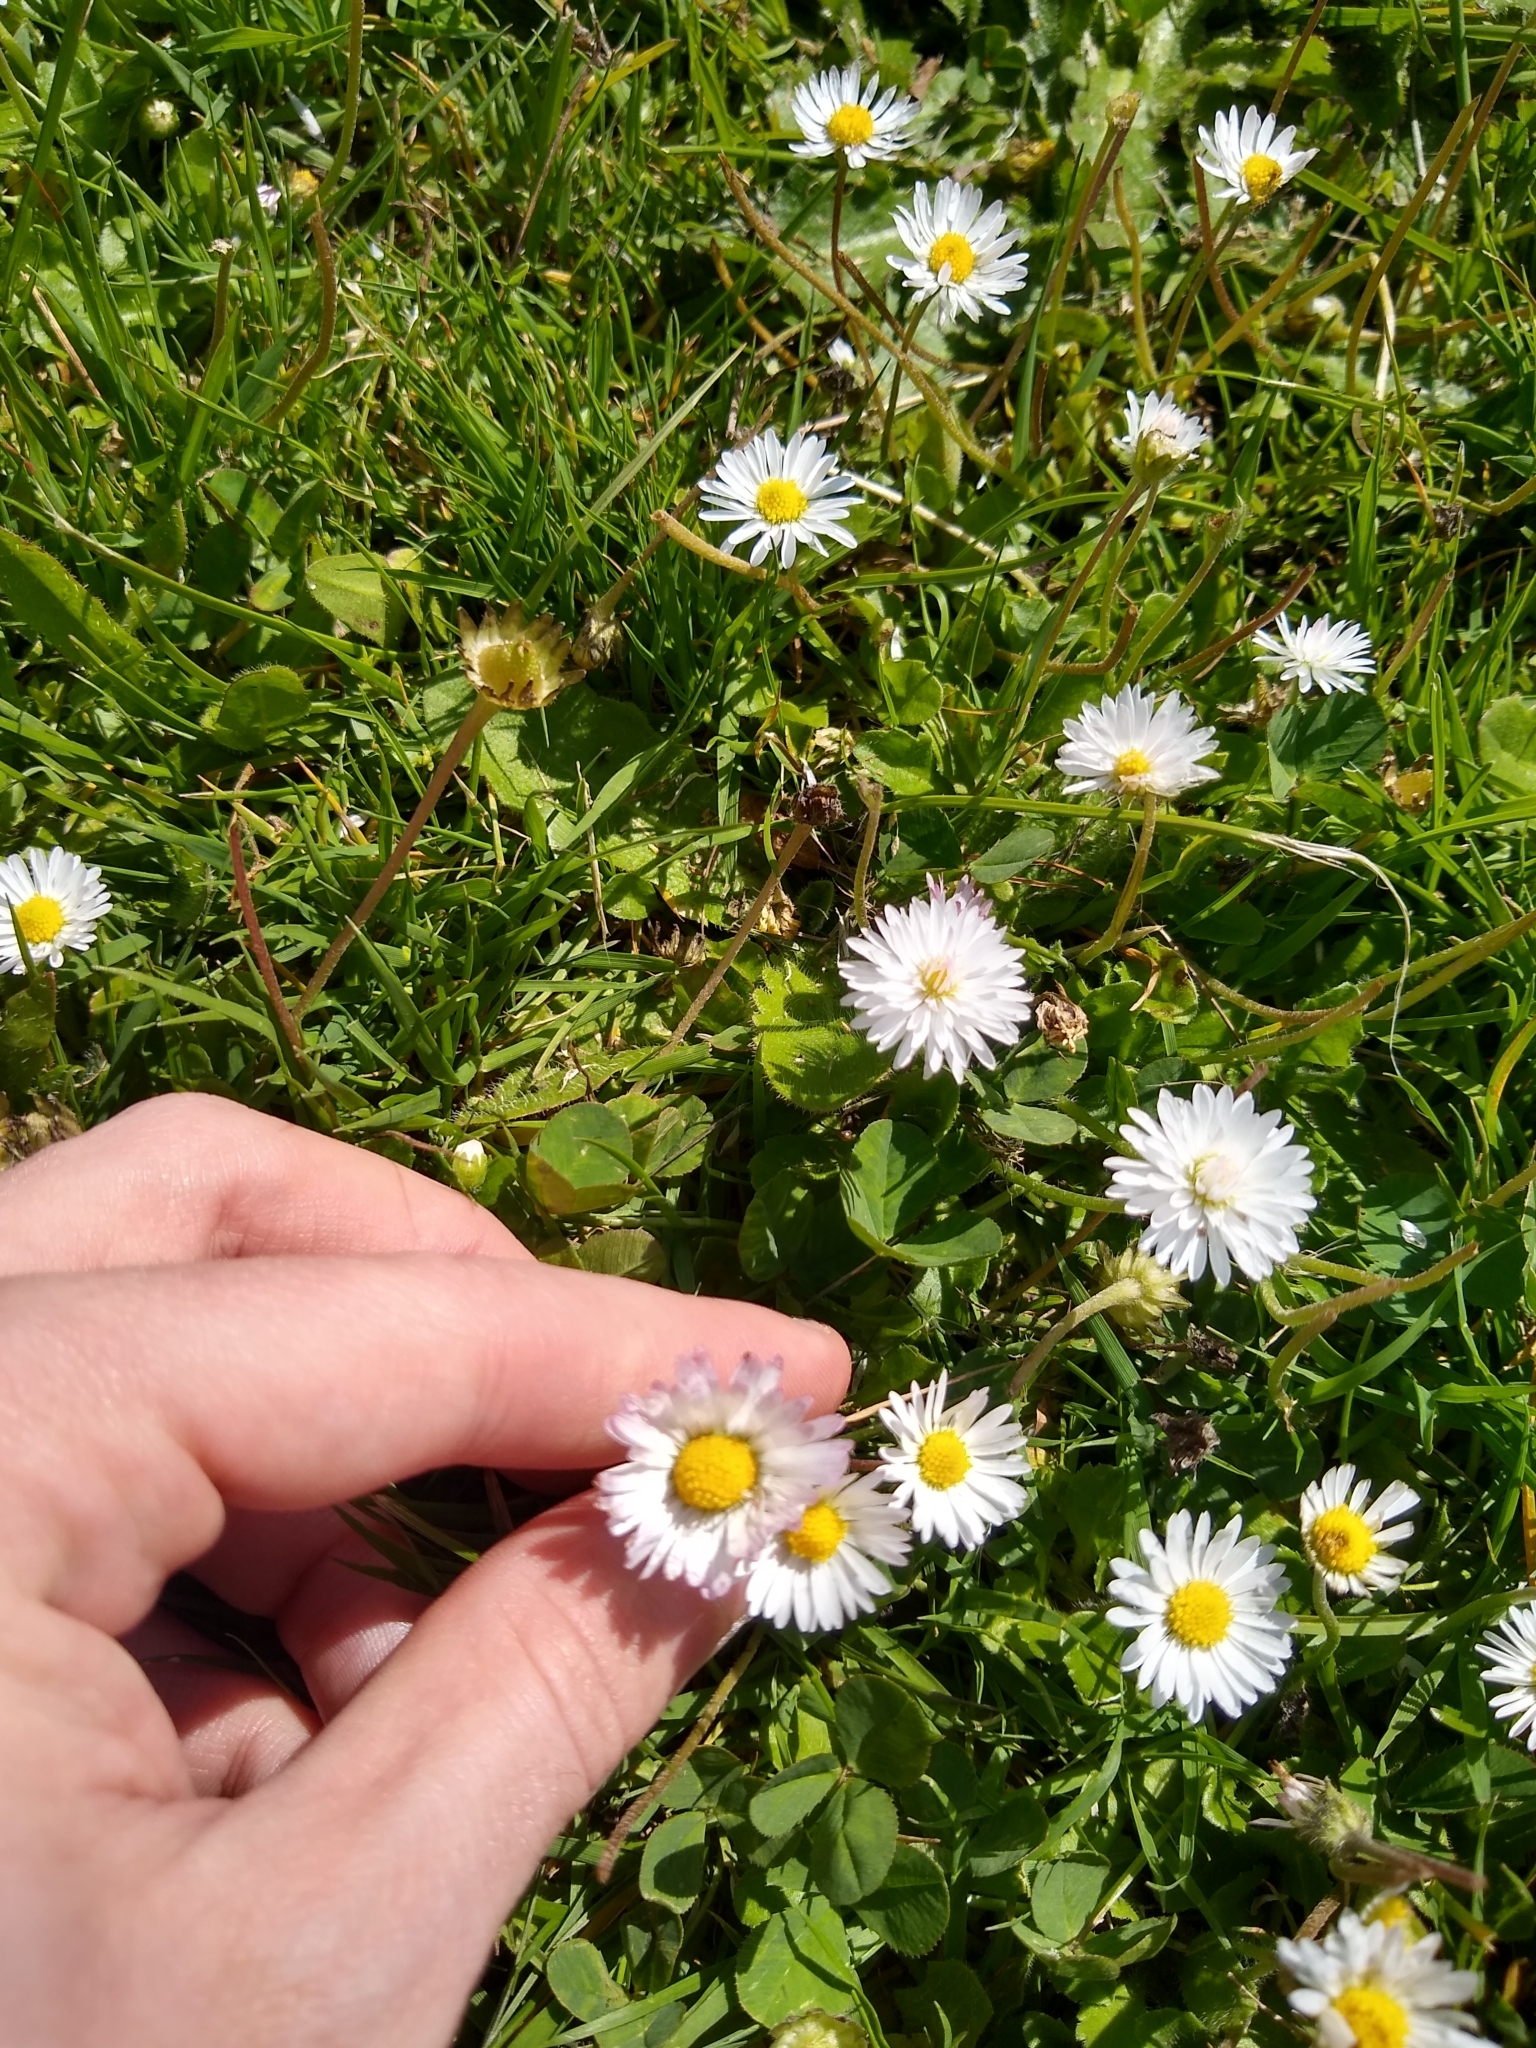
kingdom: Plantae
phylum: Tracheophyta
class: Magnoliopsida
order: Asterales
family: Asteraceae
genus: Bellis
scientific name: Bellis perennis
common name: Lawndaisy
